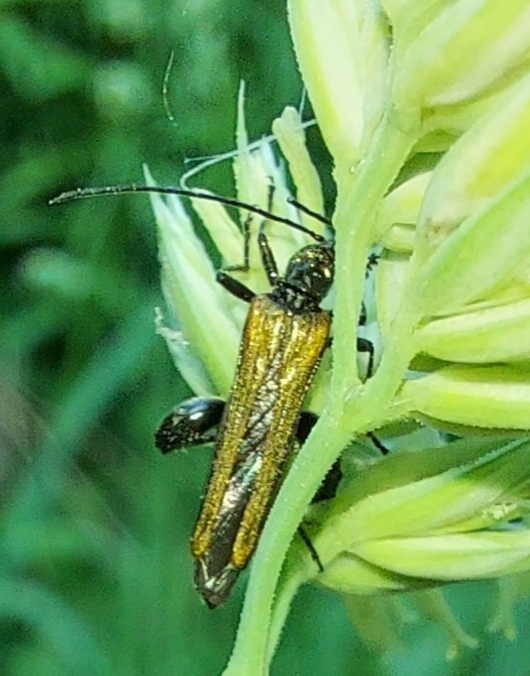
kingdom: Animalia
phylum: Arthropoda
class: Insecta
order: Coleoptera
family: Oedemeridae
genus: Oedemera
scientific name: Oedemera femorata
